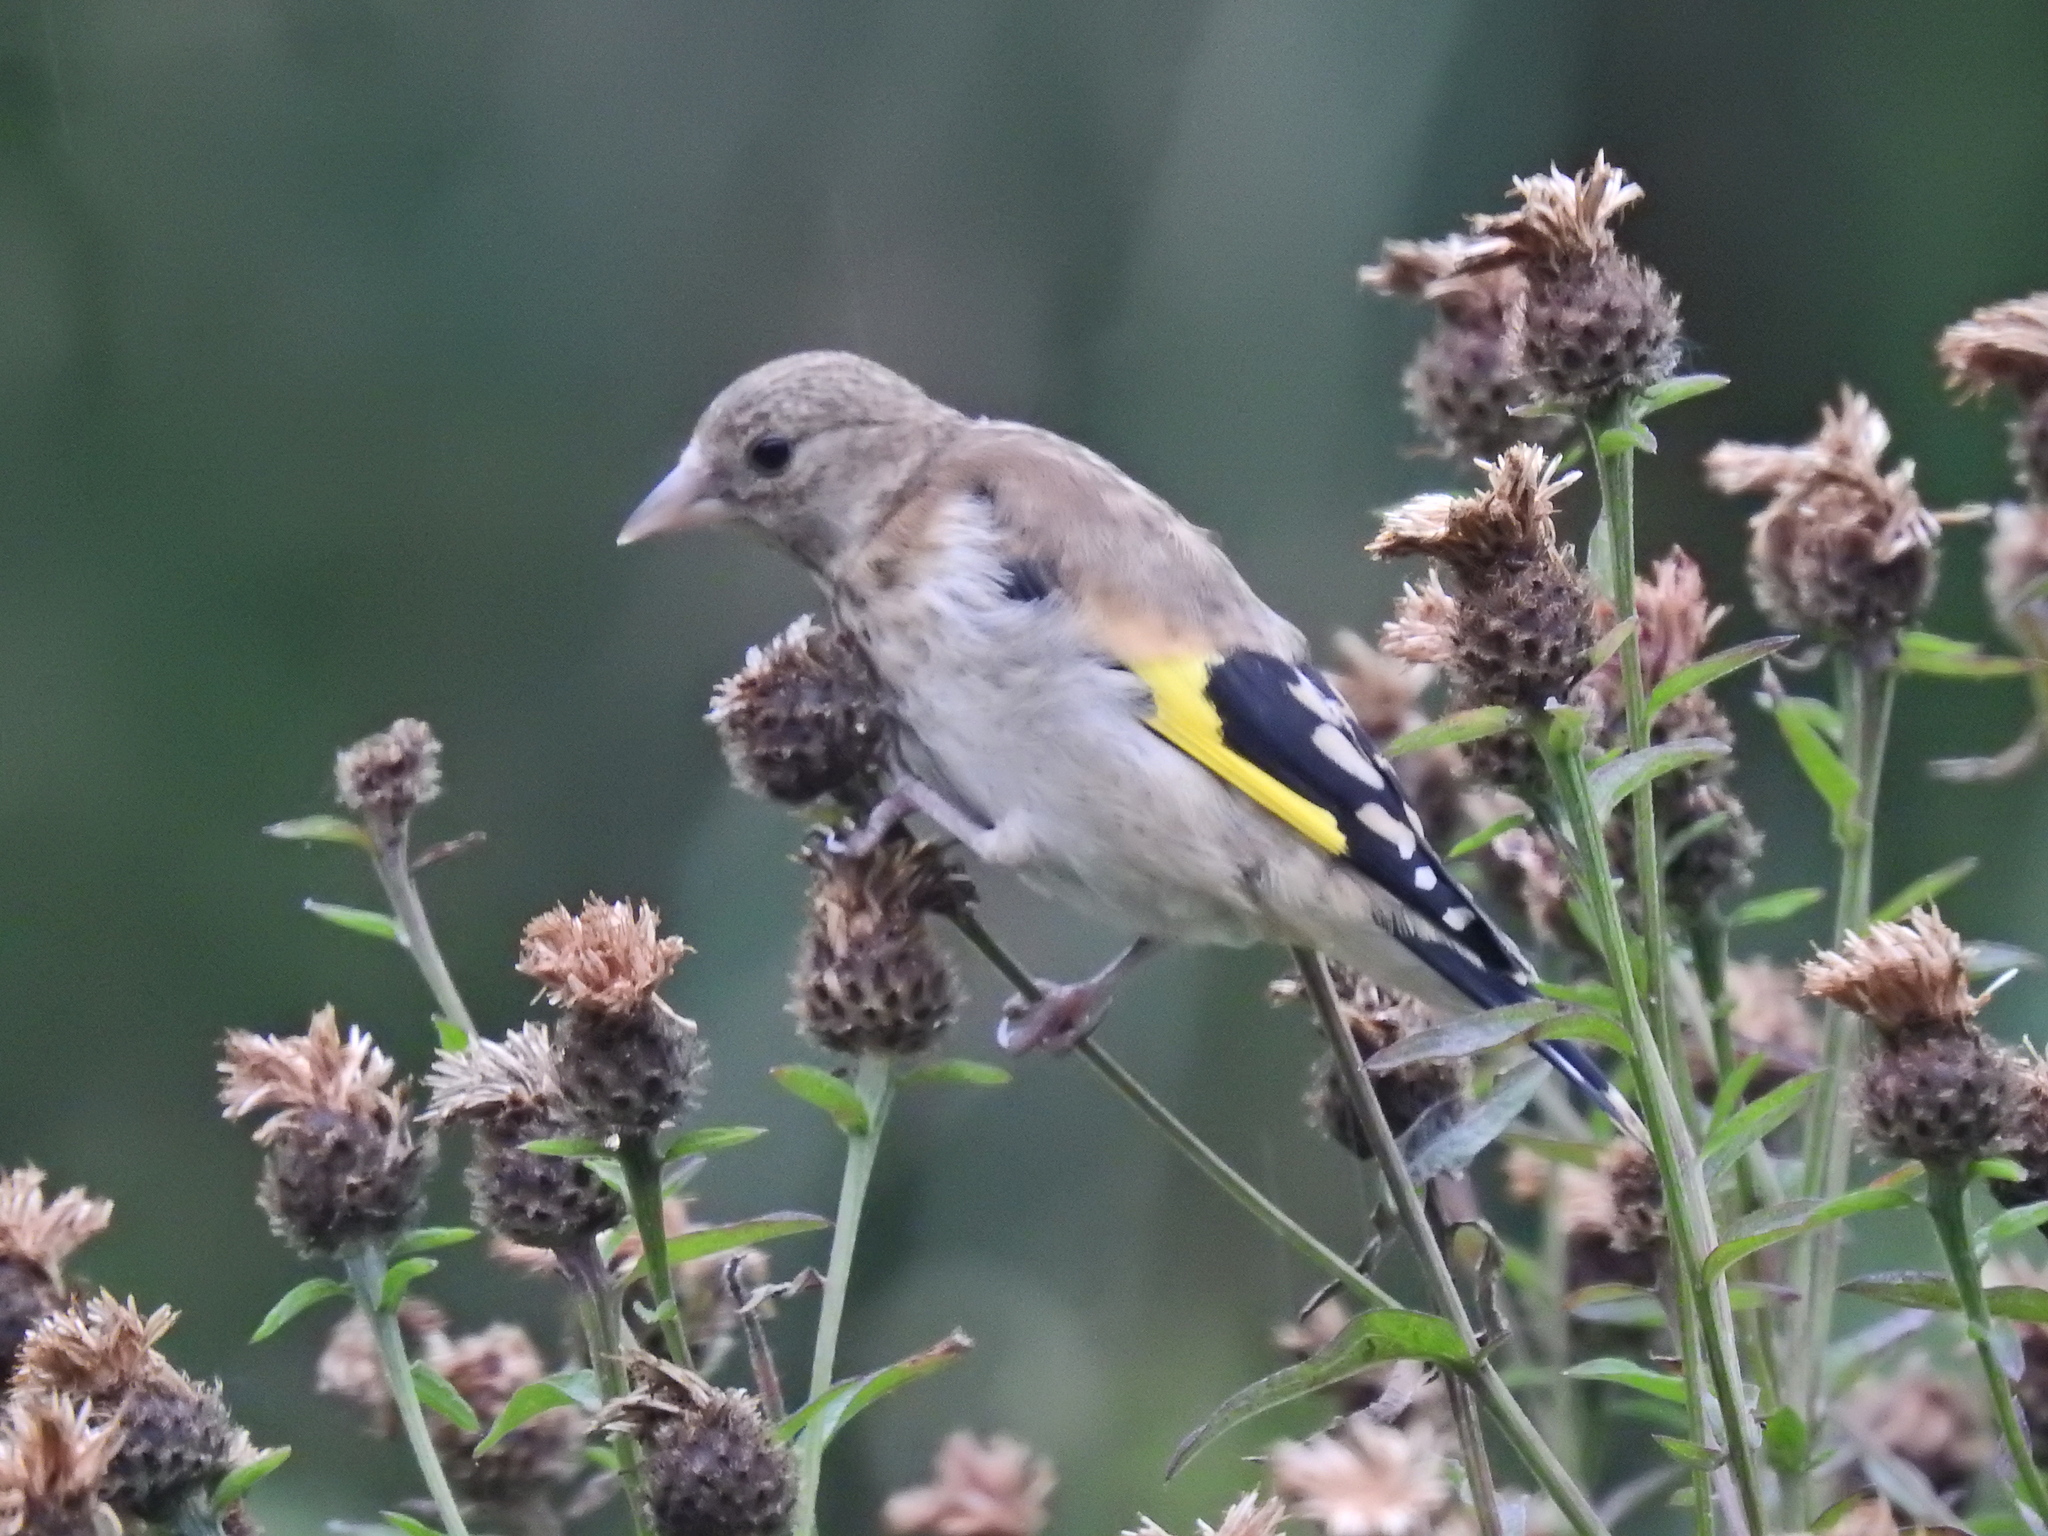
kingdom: Animalia
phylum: Chordata
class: Aves
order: Passeriformes
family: Fringillidae
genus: Carduelis
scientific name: Carduelis carduelis
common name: European goldfinch
